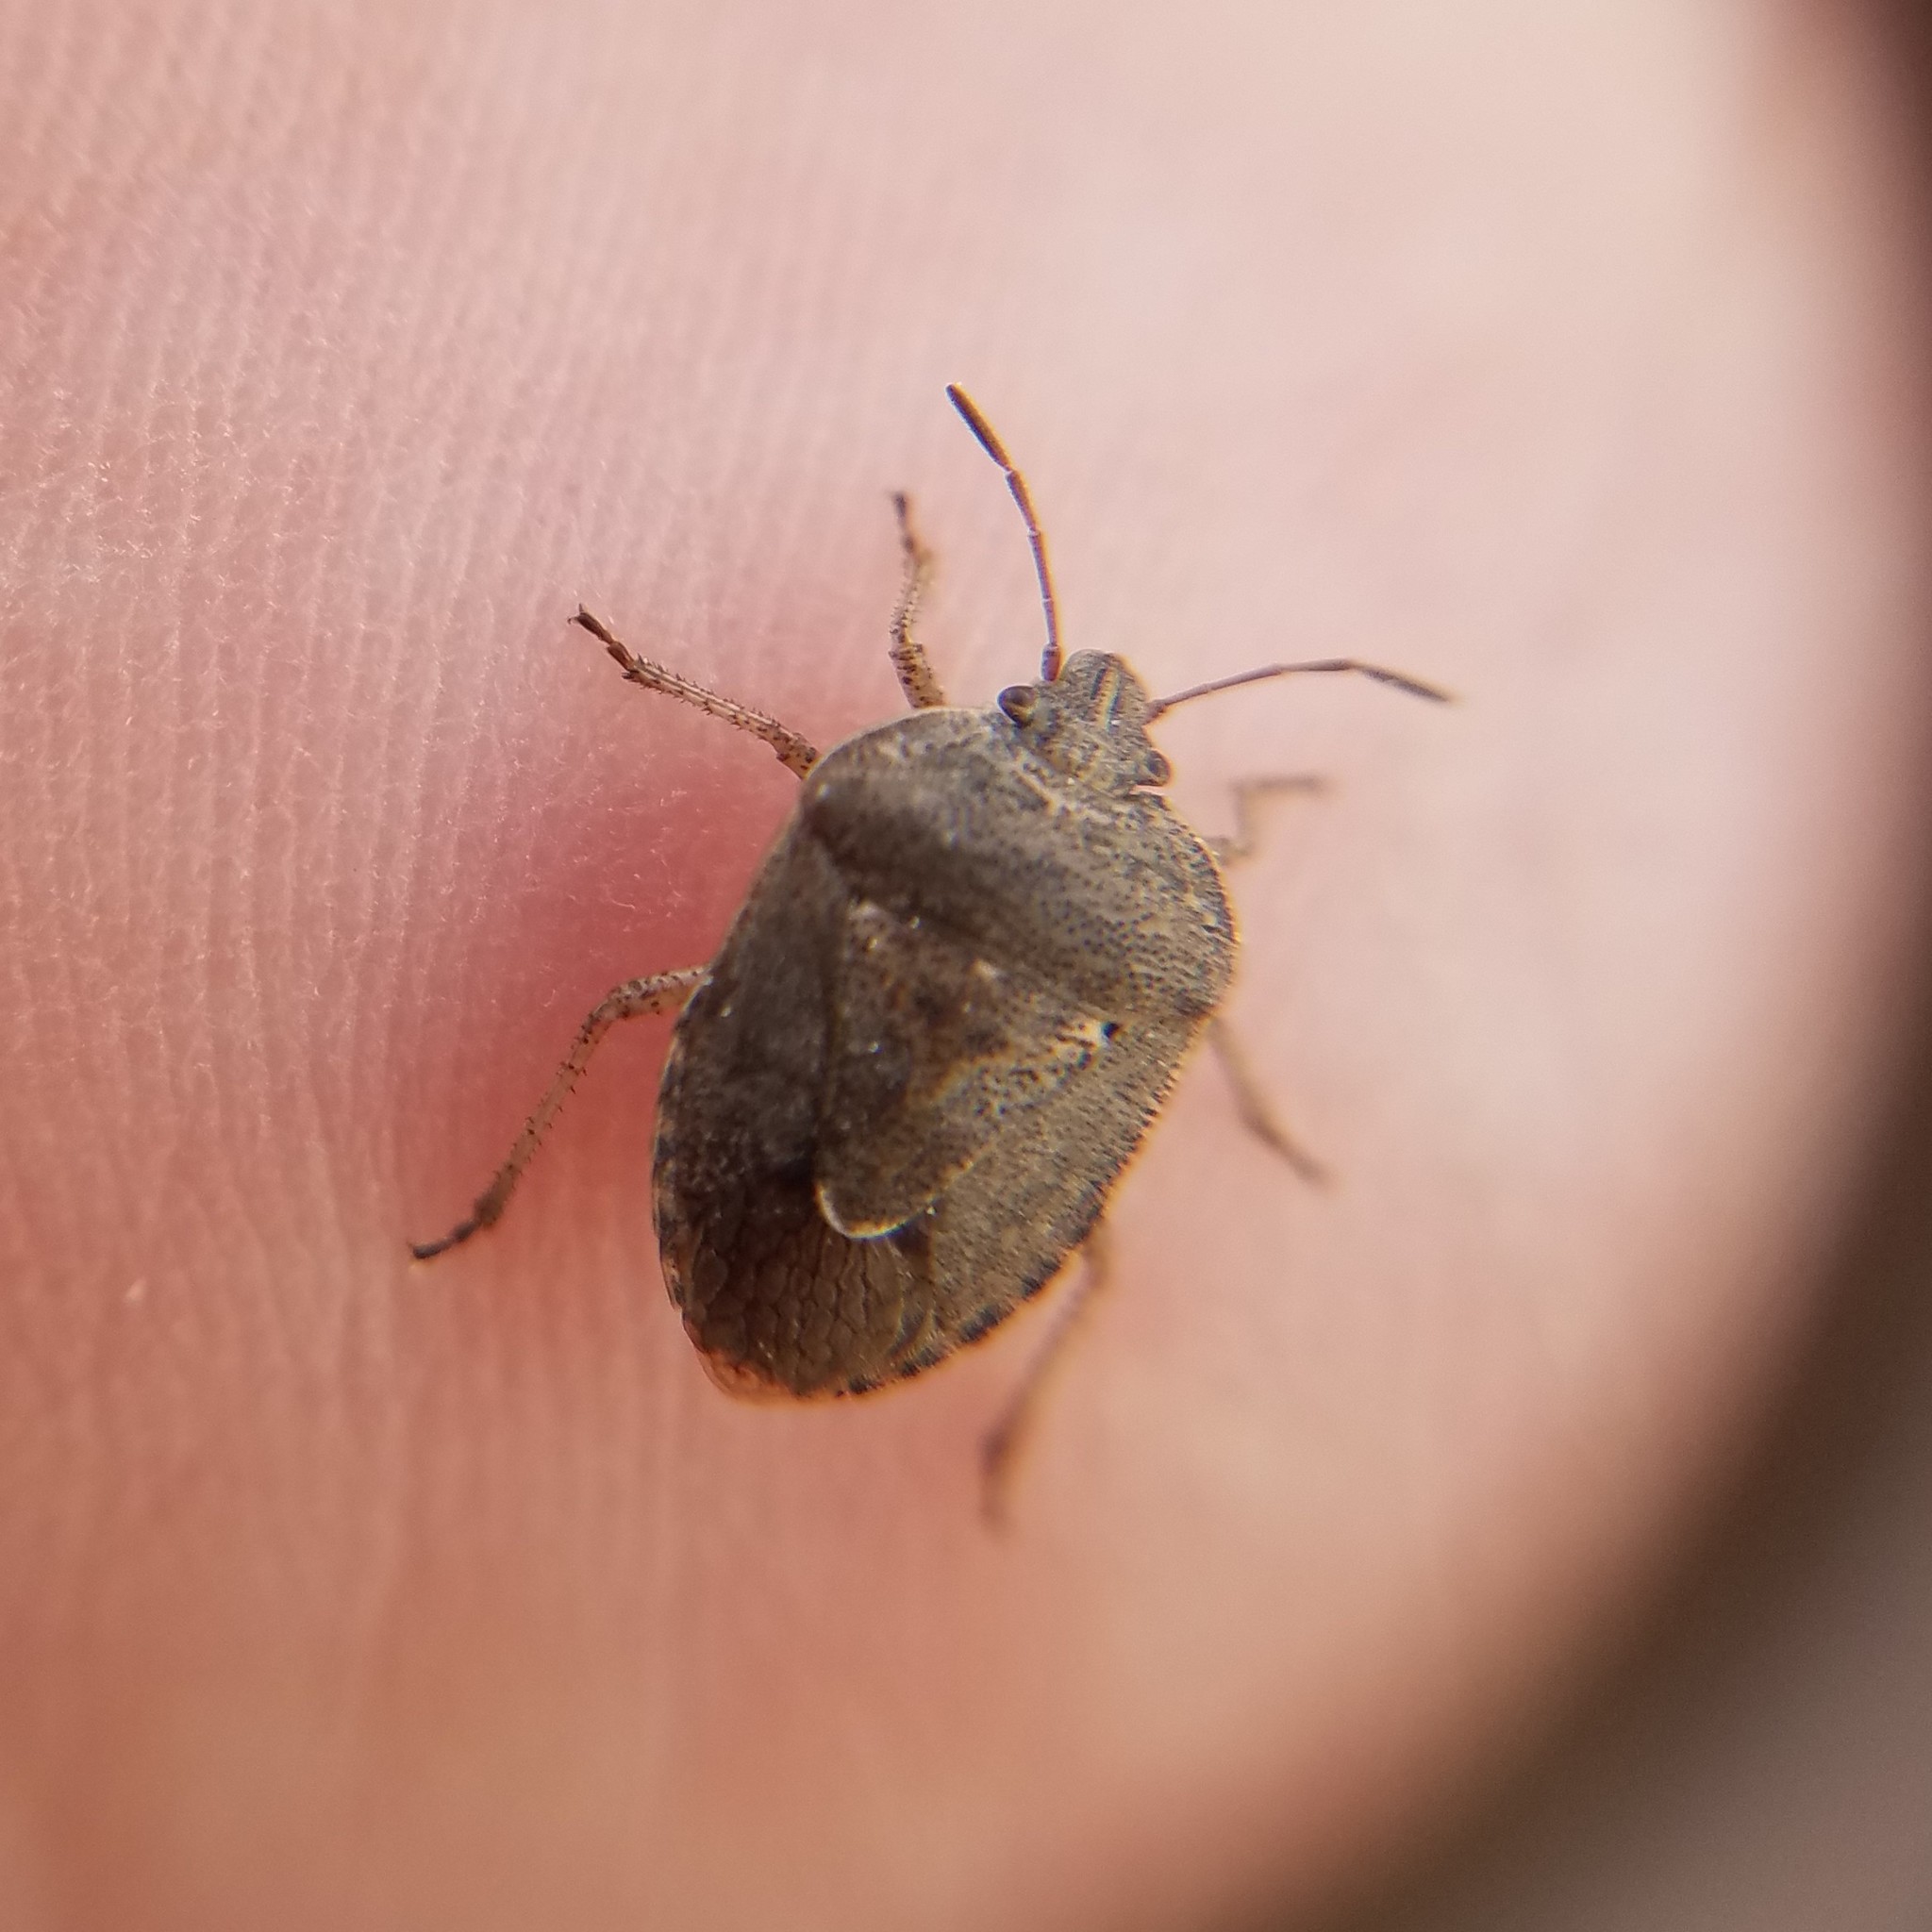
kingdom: Animalia
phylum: Arthropoda
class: Insecta
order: Hemiptera
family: Pentatomidae
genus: Hymenarcys
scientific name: Hymenarcys nervosa
